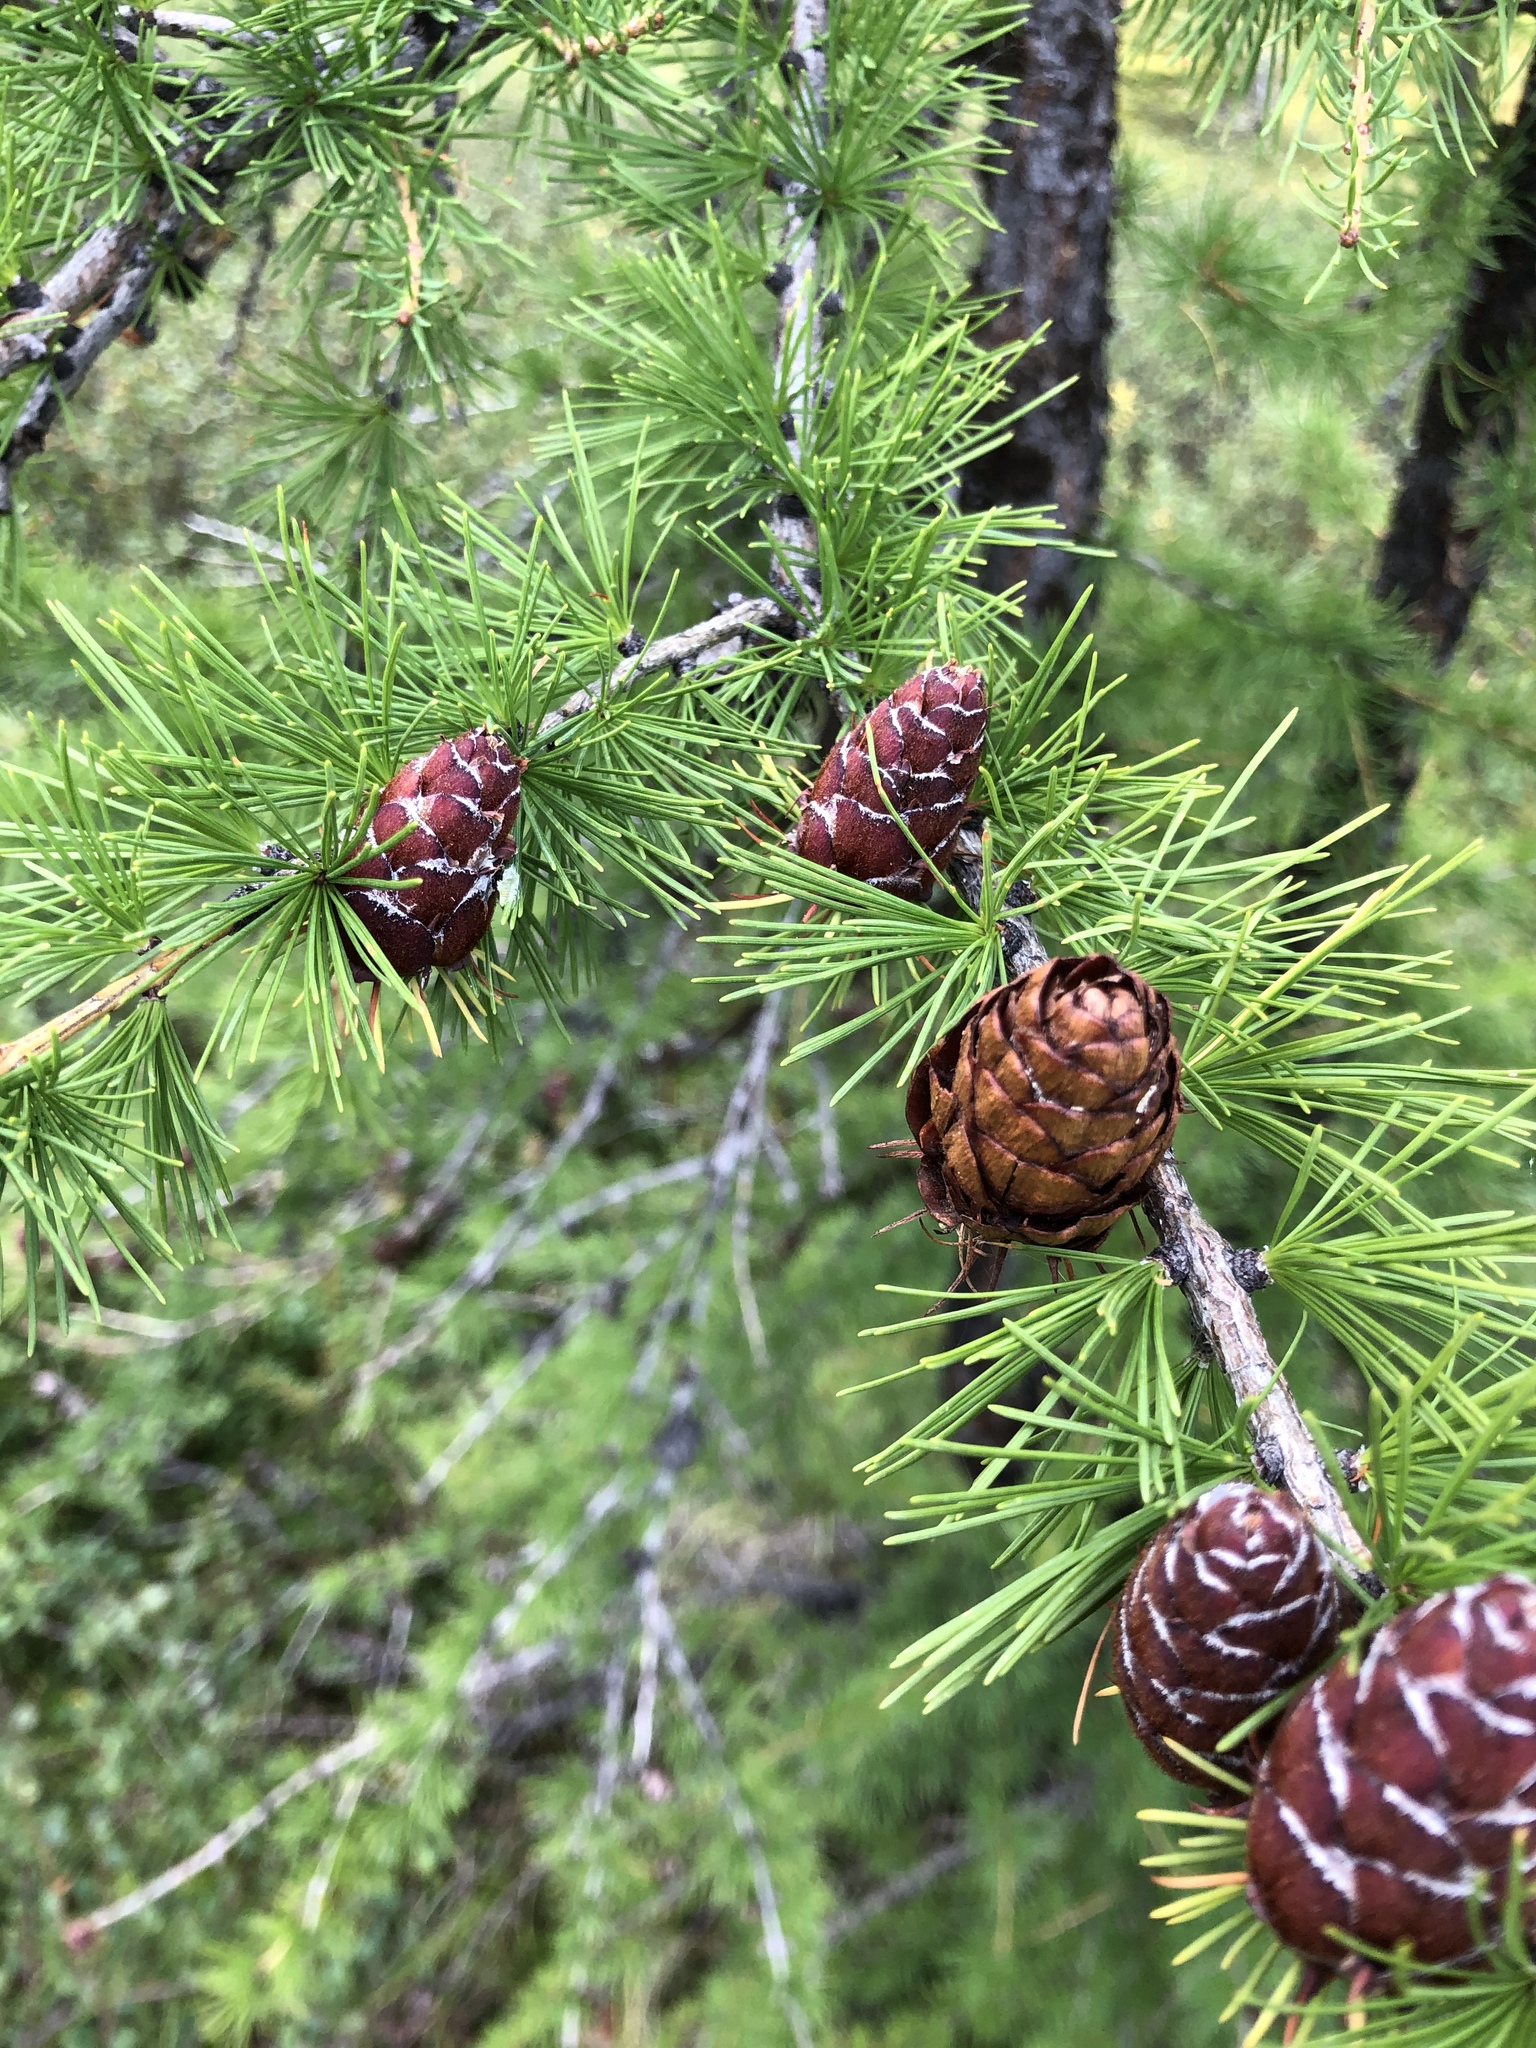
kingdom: Plantae
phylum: Tracheophyta
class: Pinopsida
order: Pinales
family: Pinaceae
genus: Larix
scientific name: Larix sibirica
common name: Siberian larch
